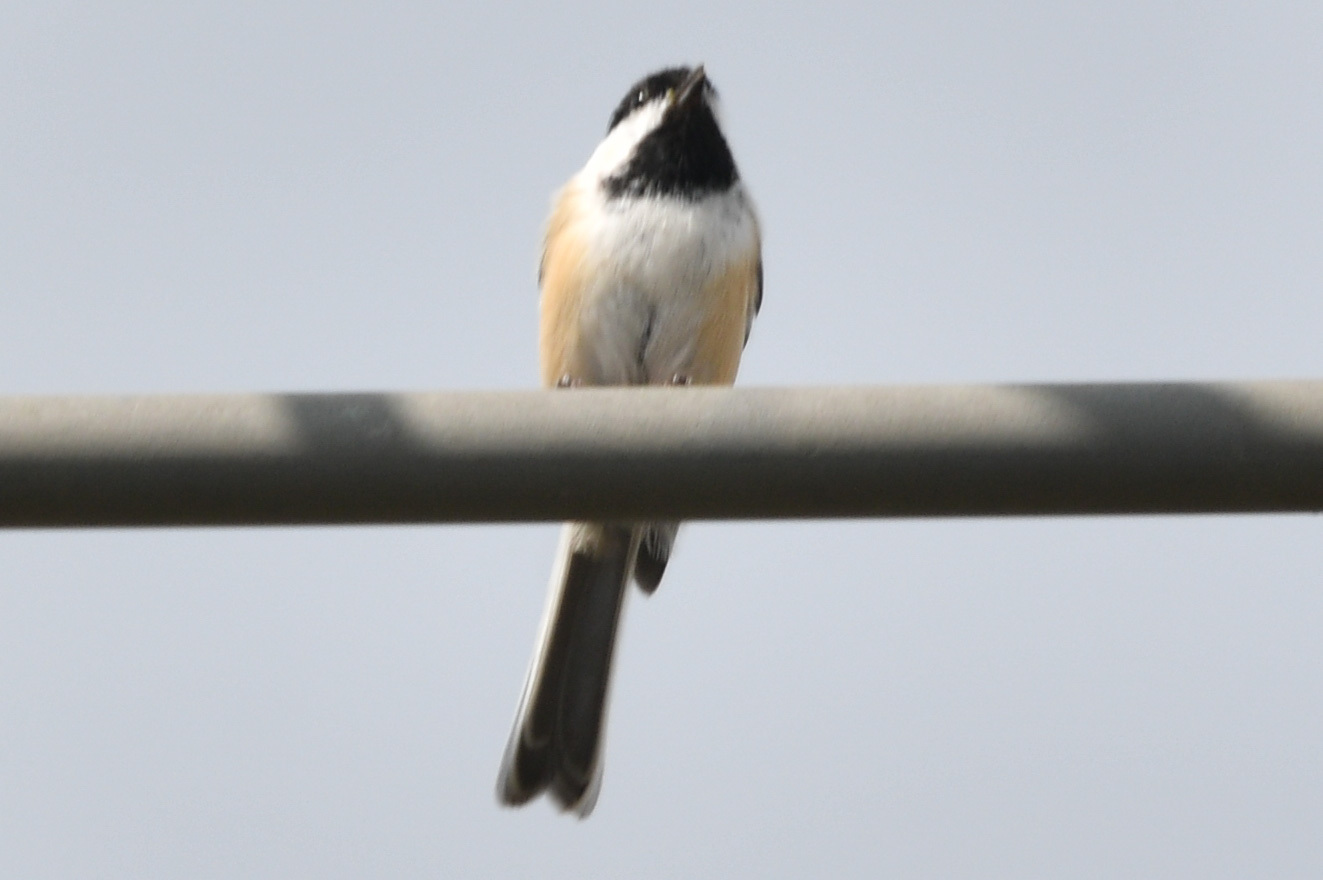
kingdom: Animalia
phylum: Chordata
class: Aves
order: Passeriformes
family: Paridae
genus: Poecile
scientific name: Poecile atricapillus
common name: Black-capped chickadee
